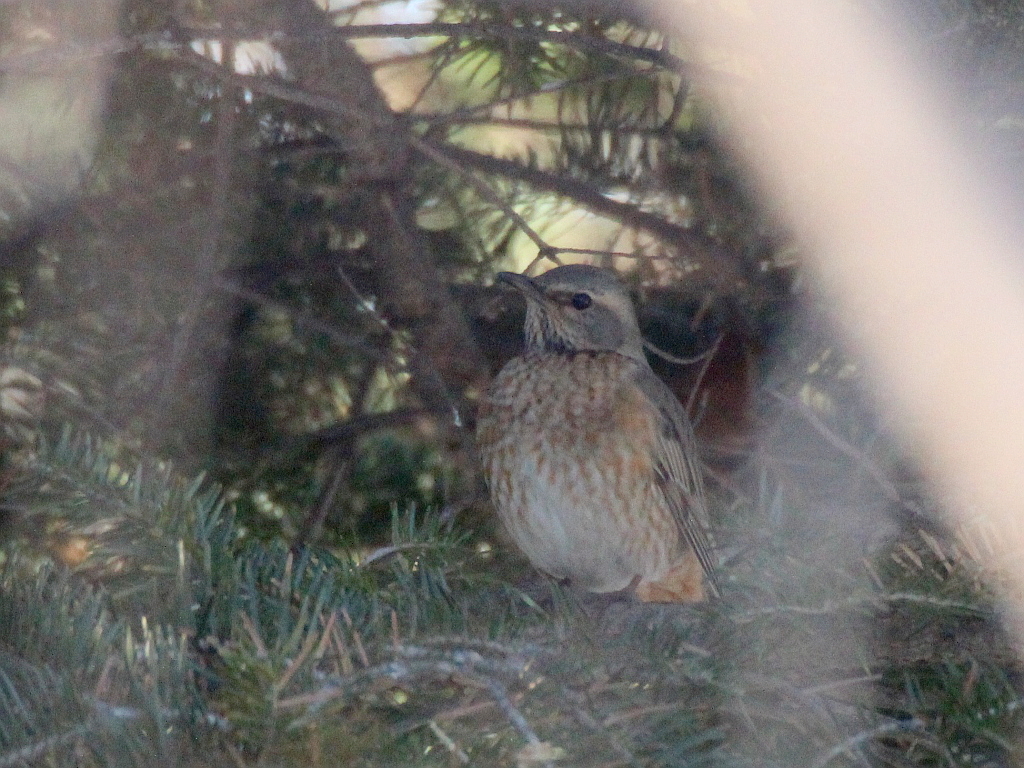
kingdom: Animalia
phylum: Chordata
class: Aves
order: Passeriformes
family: Turdidae
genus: Turdus
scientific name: Turdus naumanni
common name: Naumann's thrush
